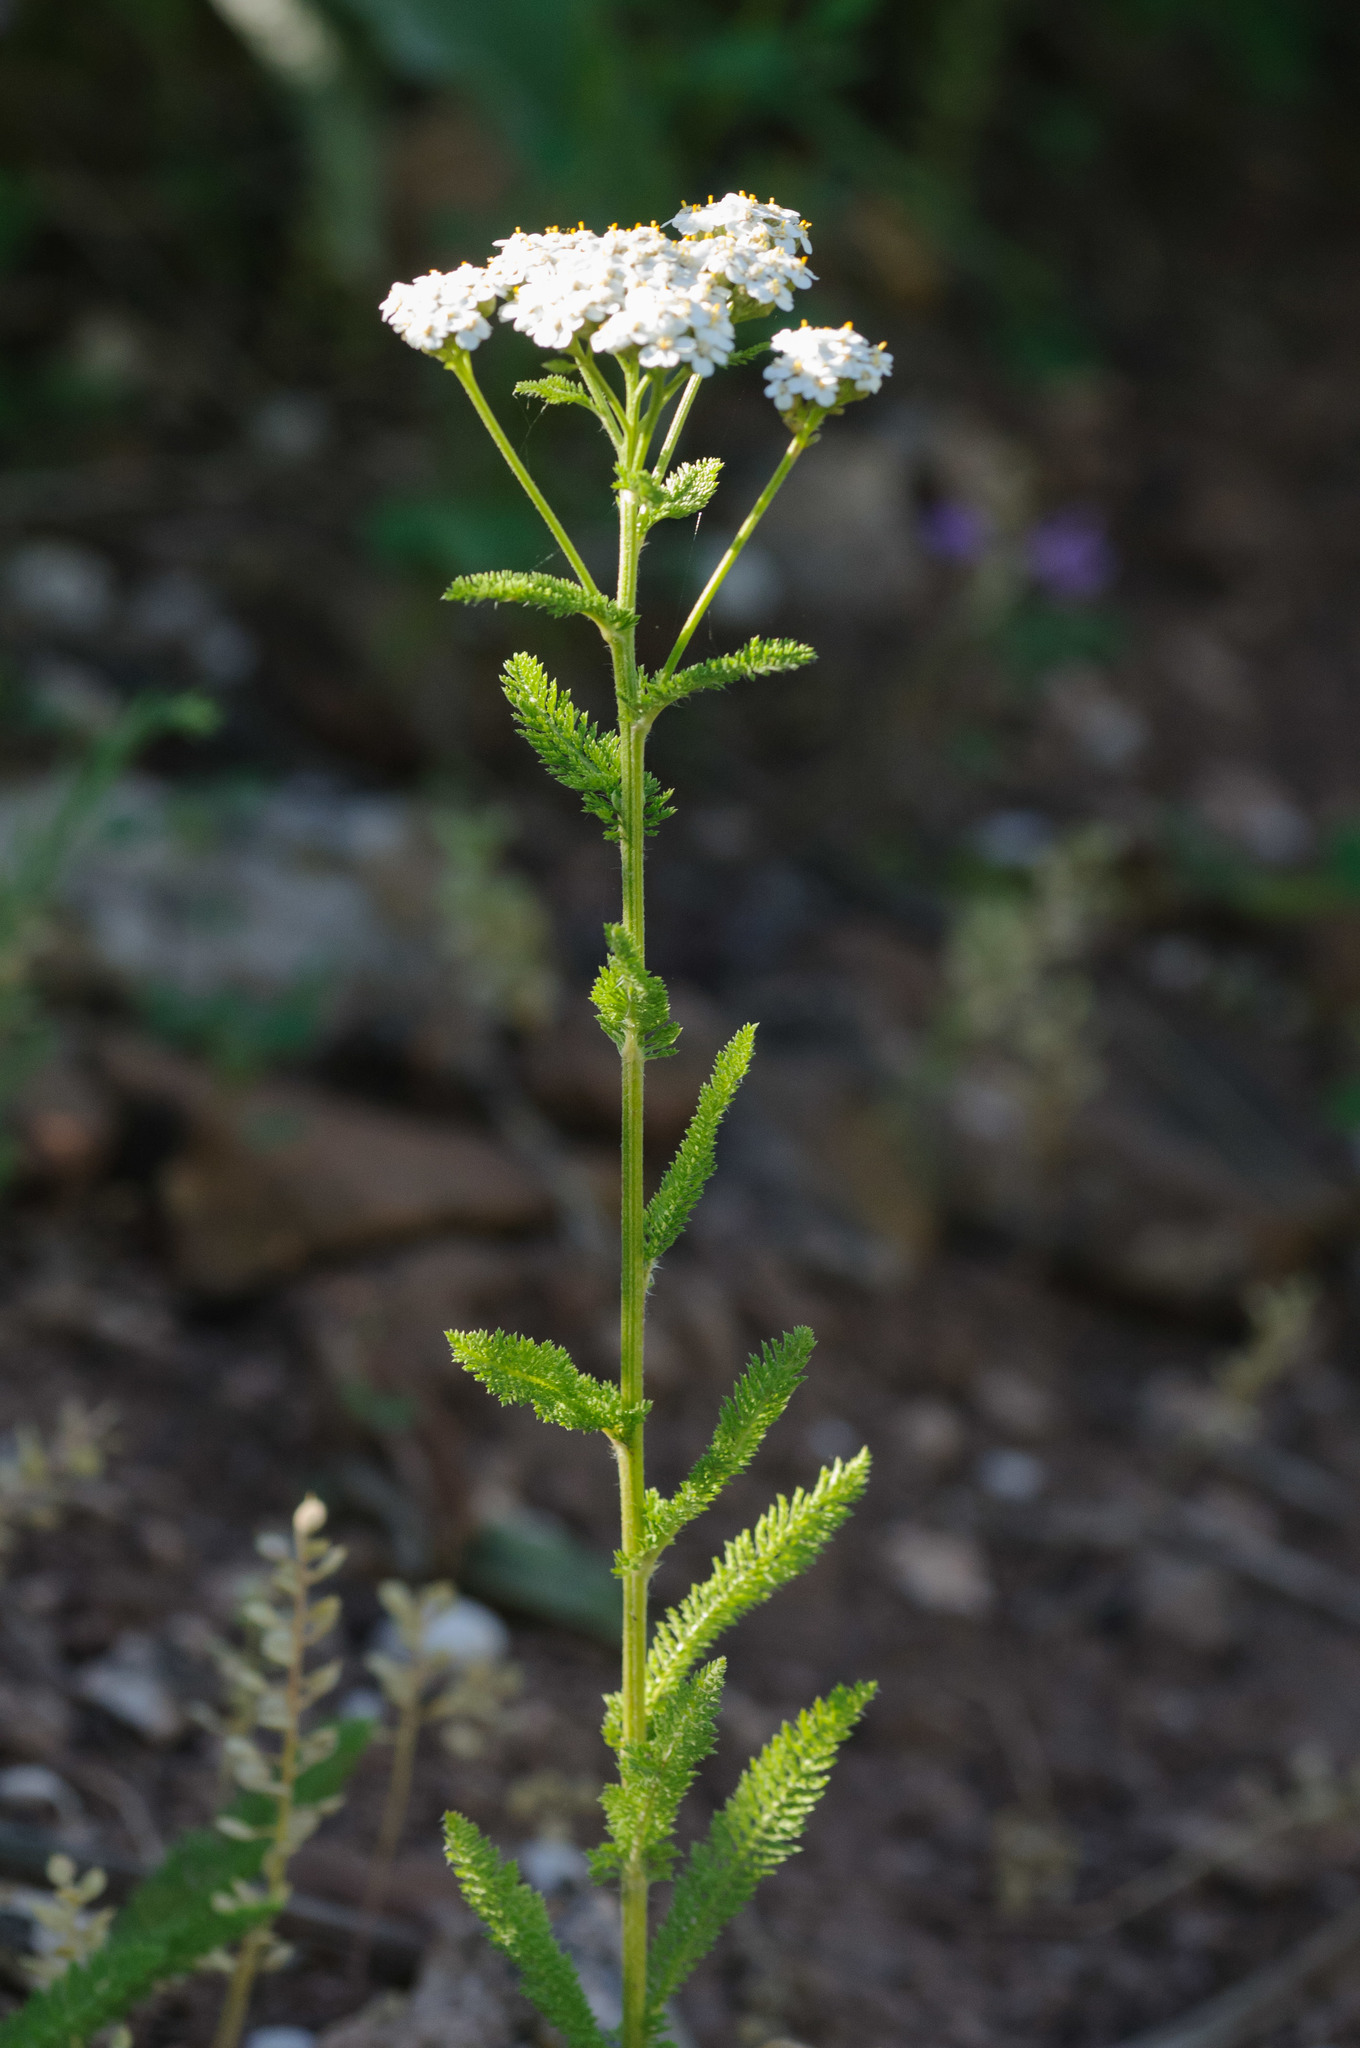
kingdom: Plantae
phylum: Tracheophyta
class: Magnoliopsida
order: Asterales
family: Asteraceae
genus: Achillea
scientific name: Achillea millefolium
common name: Yarrow
